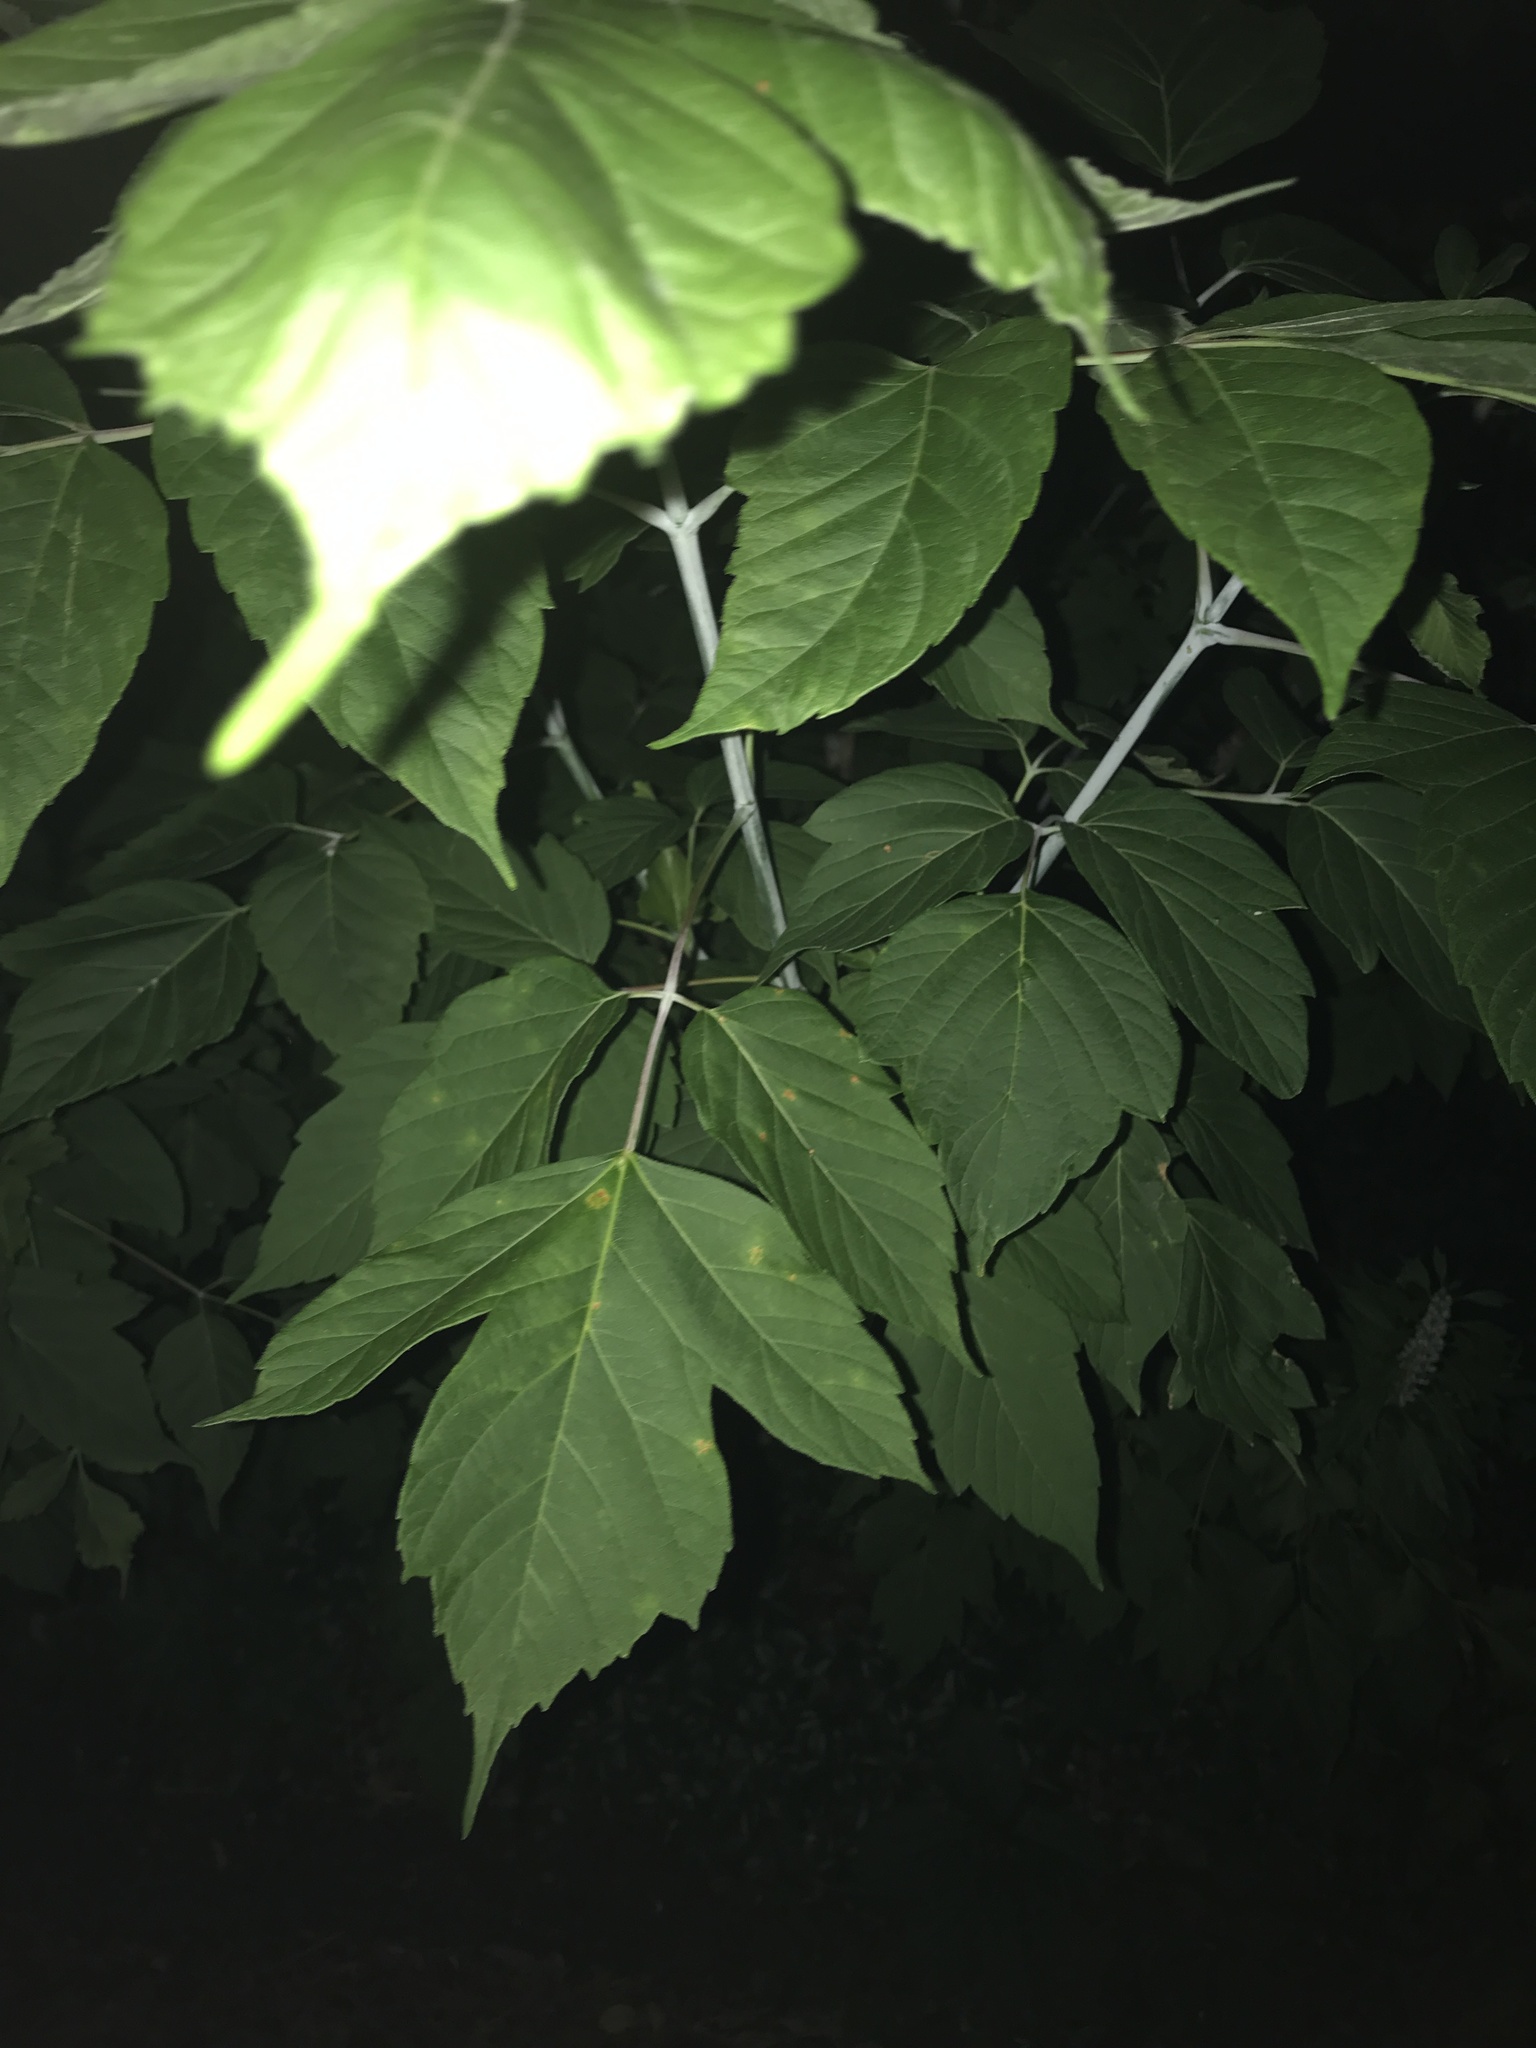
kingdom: Plantae
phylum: Tracheophyta
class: Magnoliopsida
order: Sapindales
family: Sapindaceae
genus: Acer
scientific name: Acer negundo
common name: Ashleaf maple
